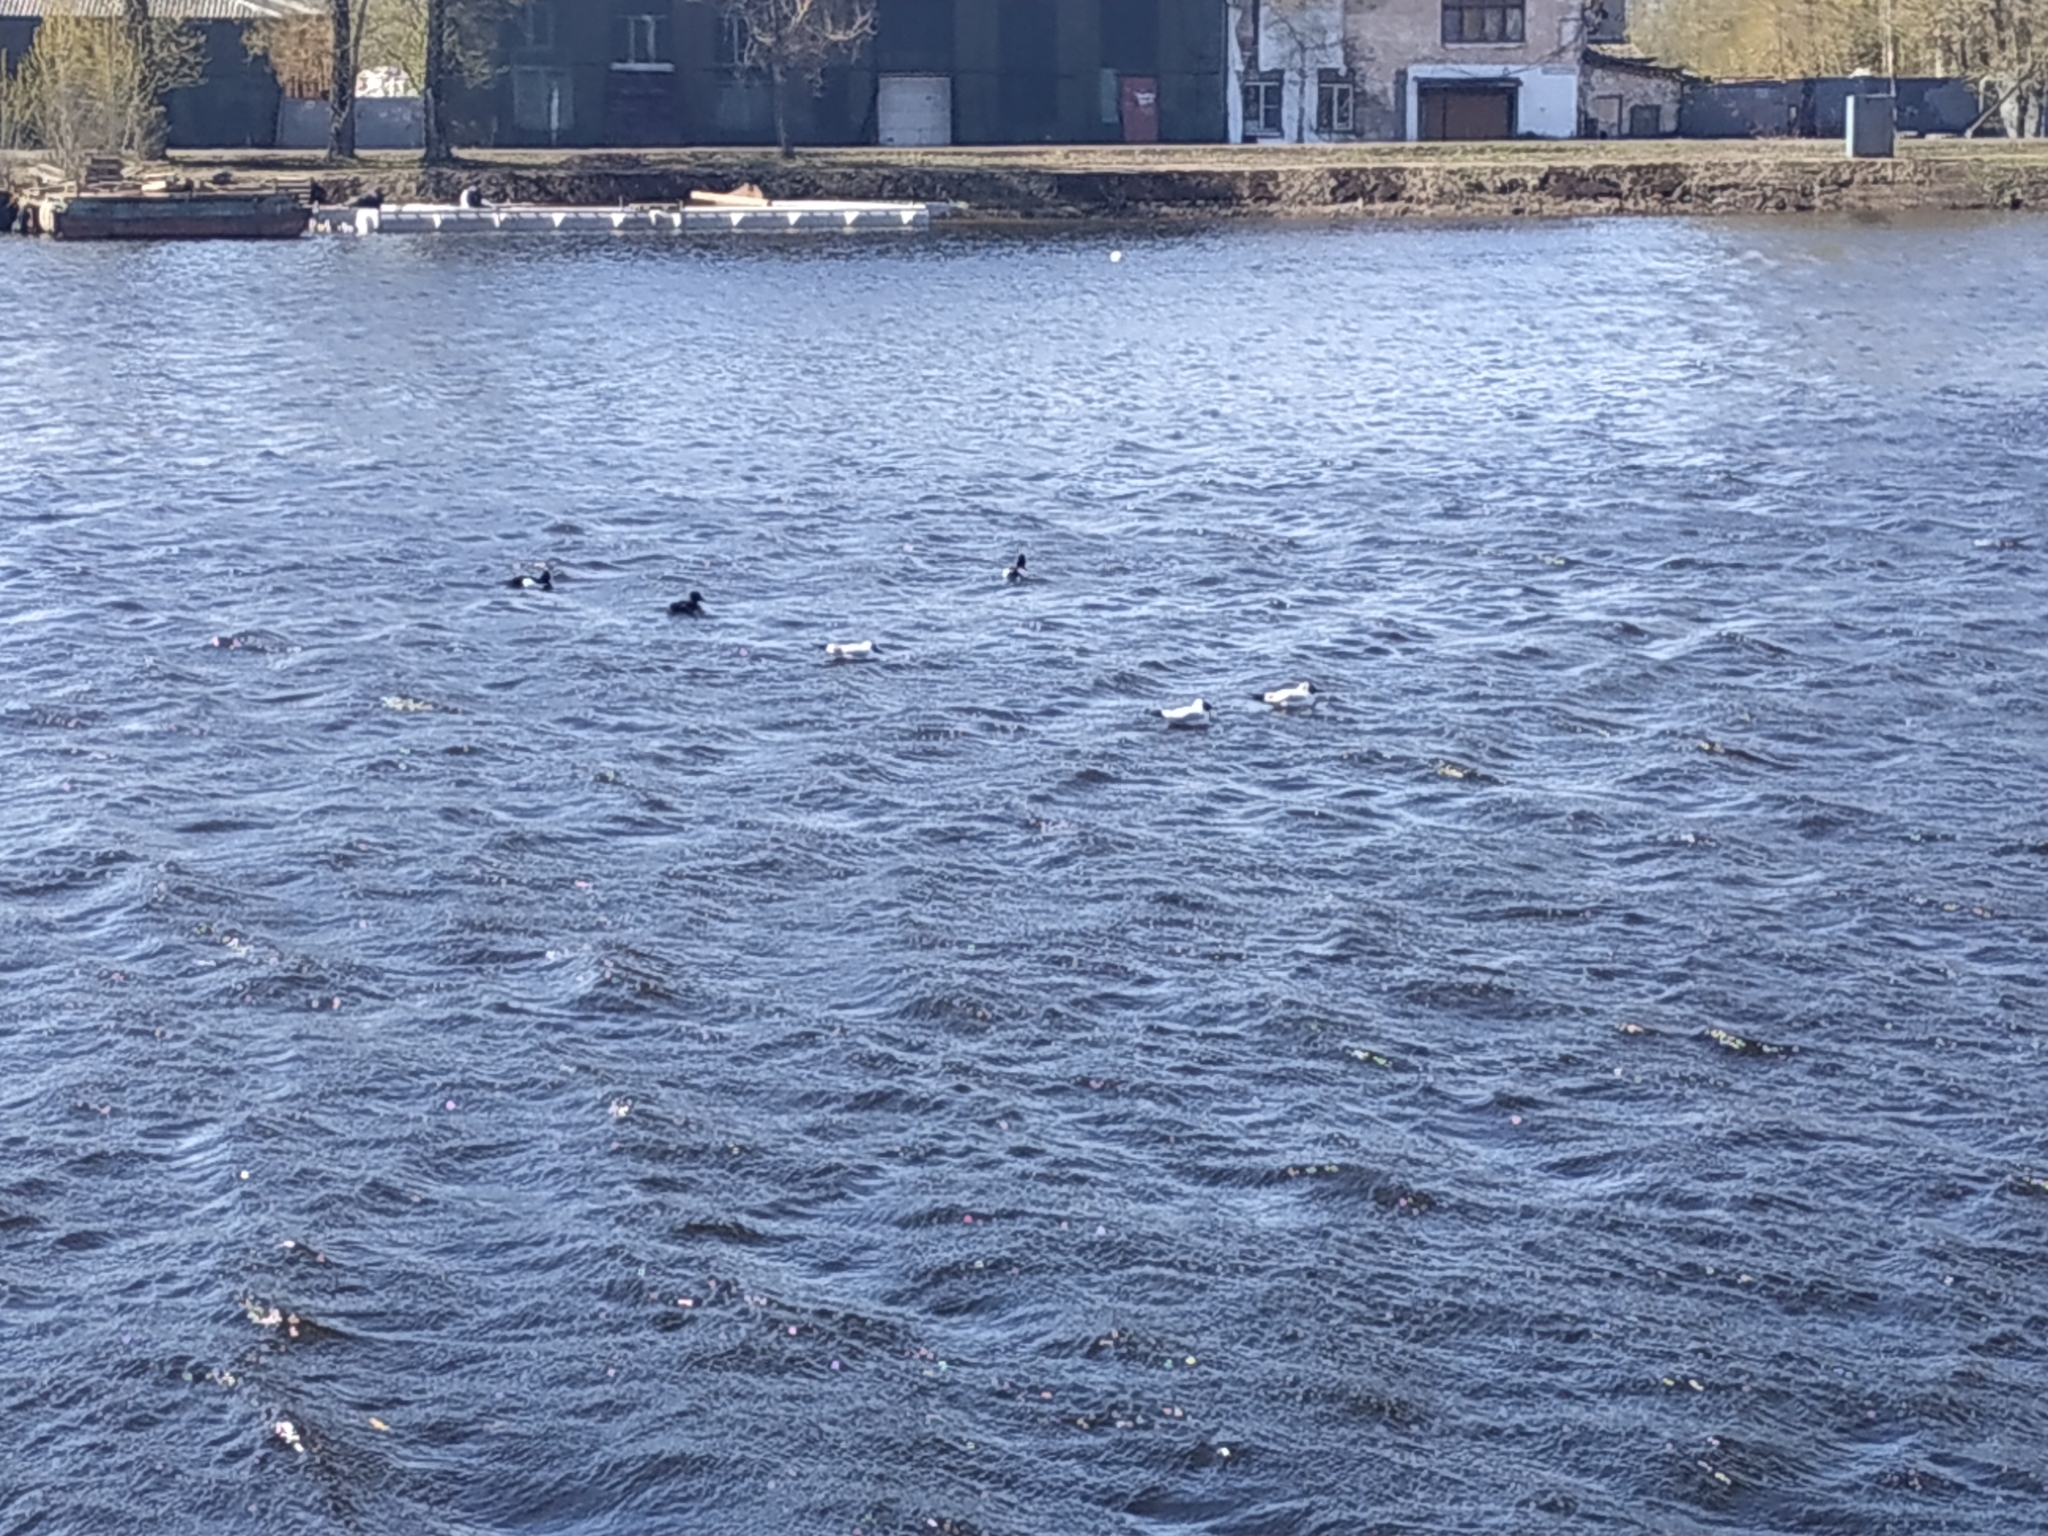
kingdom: Animalia
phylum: Chordata
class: Aves
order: Charadriiformes
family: Laridae
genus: Chroicocephalus
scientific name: Chroicocephalus ridibundus
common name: Black-headed gull
